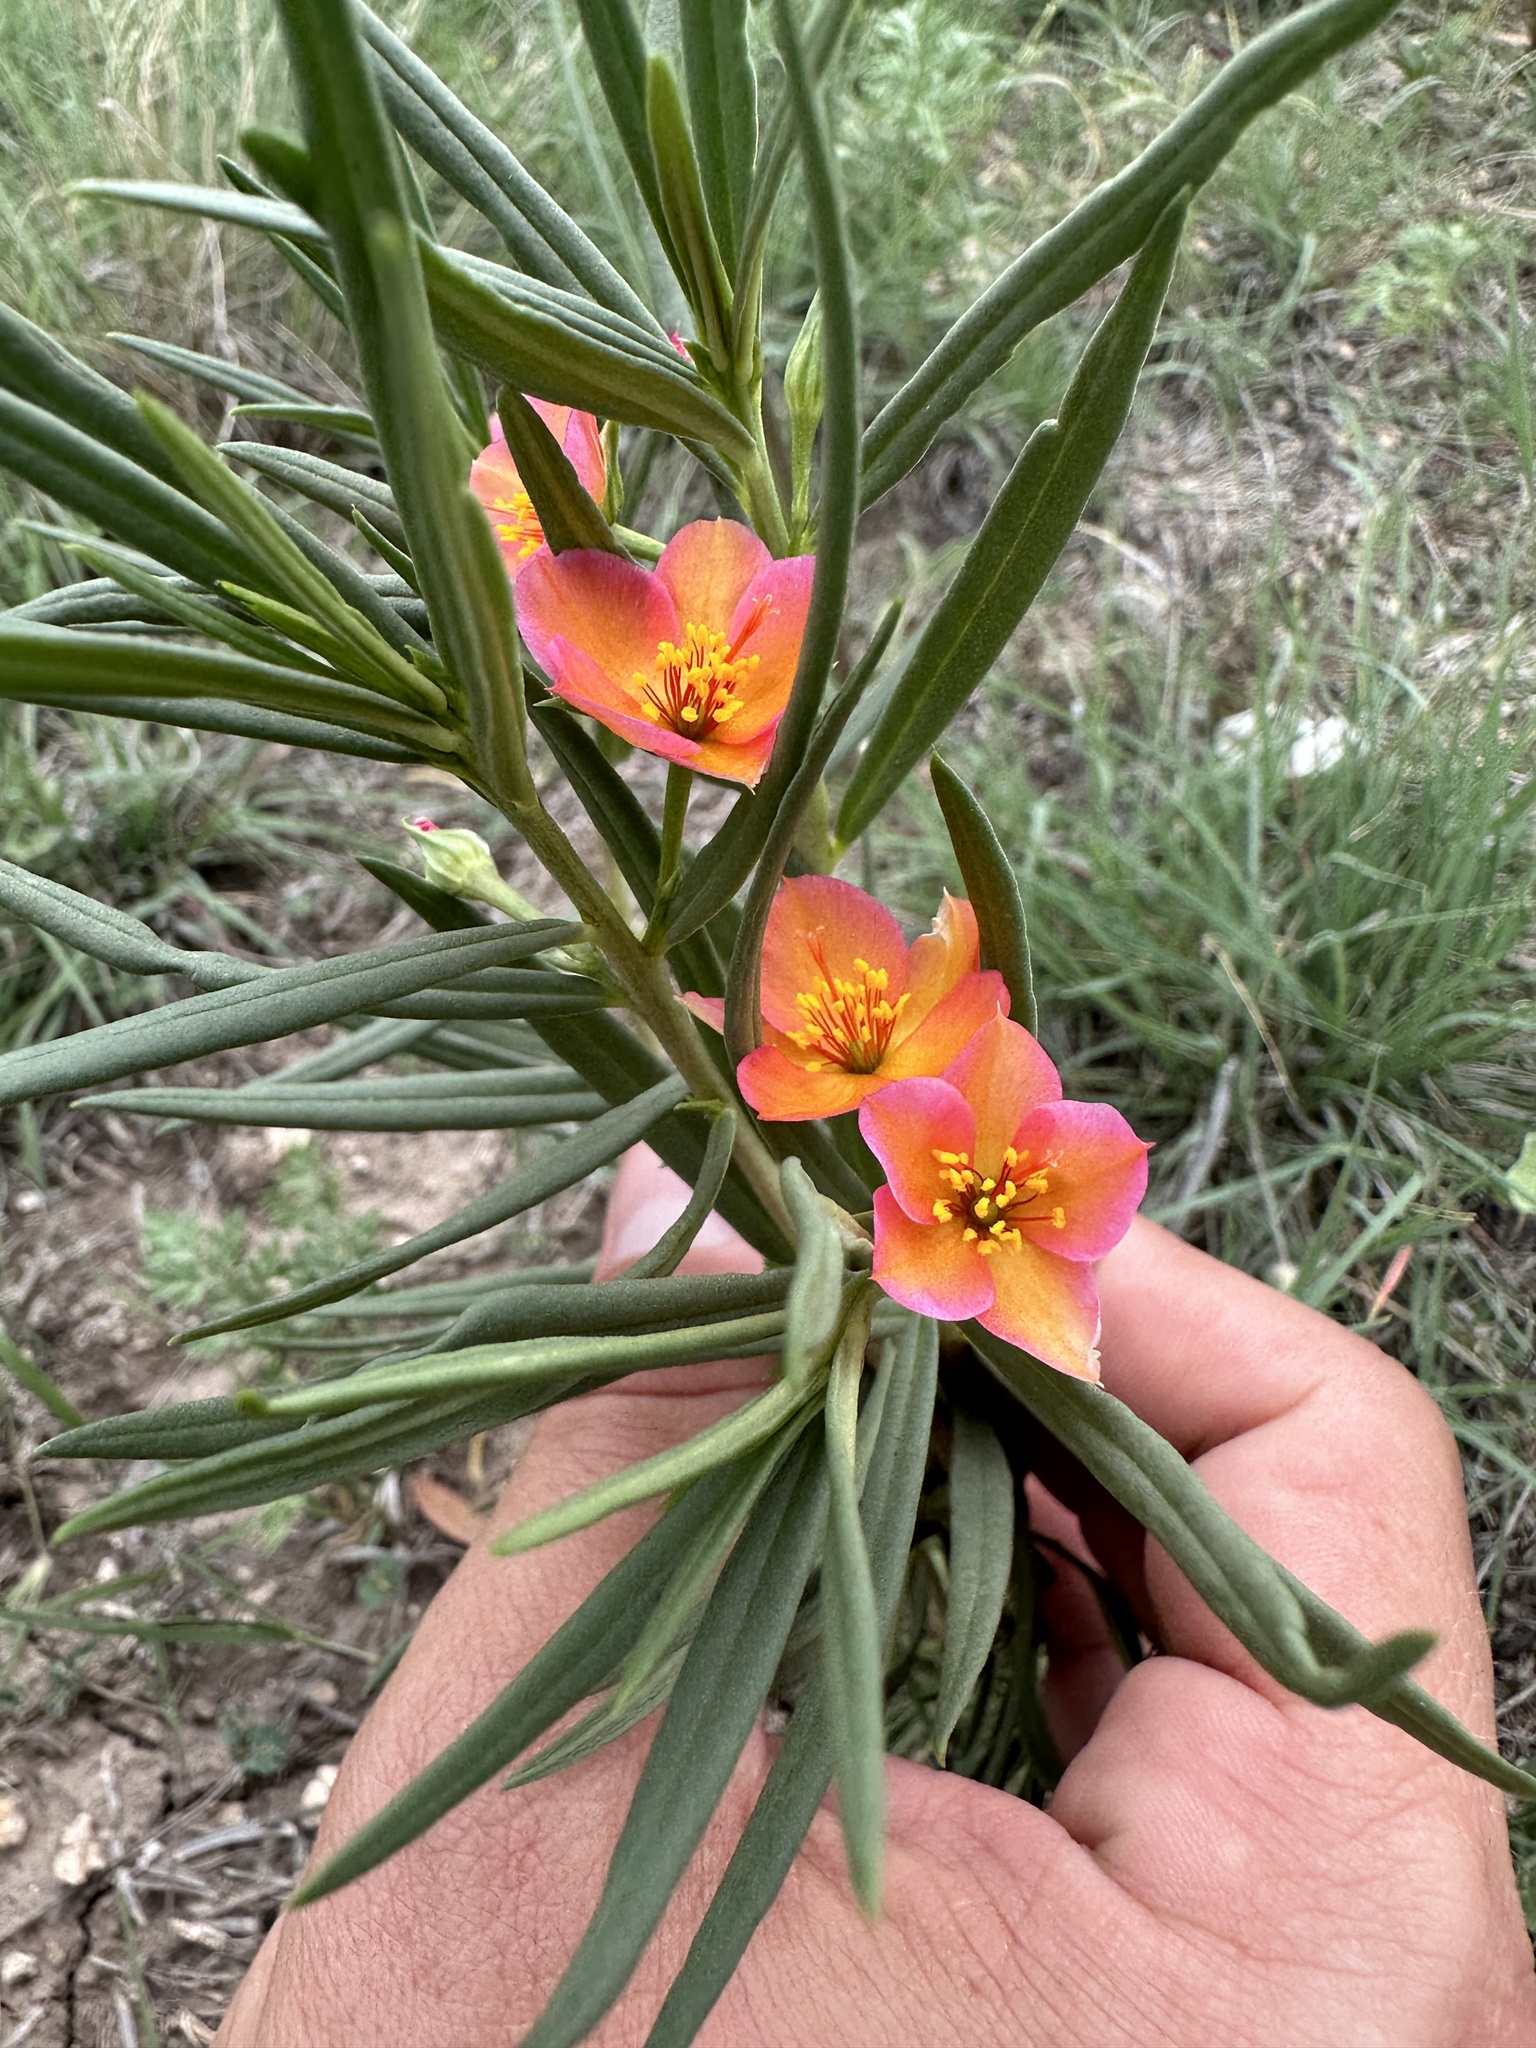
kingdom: Plantae
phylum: Tracheophyta
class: Magnoliopsida
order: Caryophyllales
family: Montiaceae
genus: Phemeranthus
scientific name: Phemeranthus aurantiacus
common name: Orange fameflower
